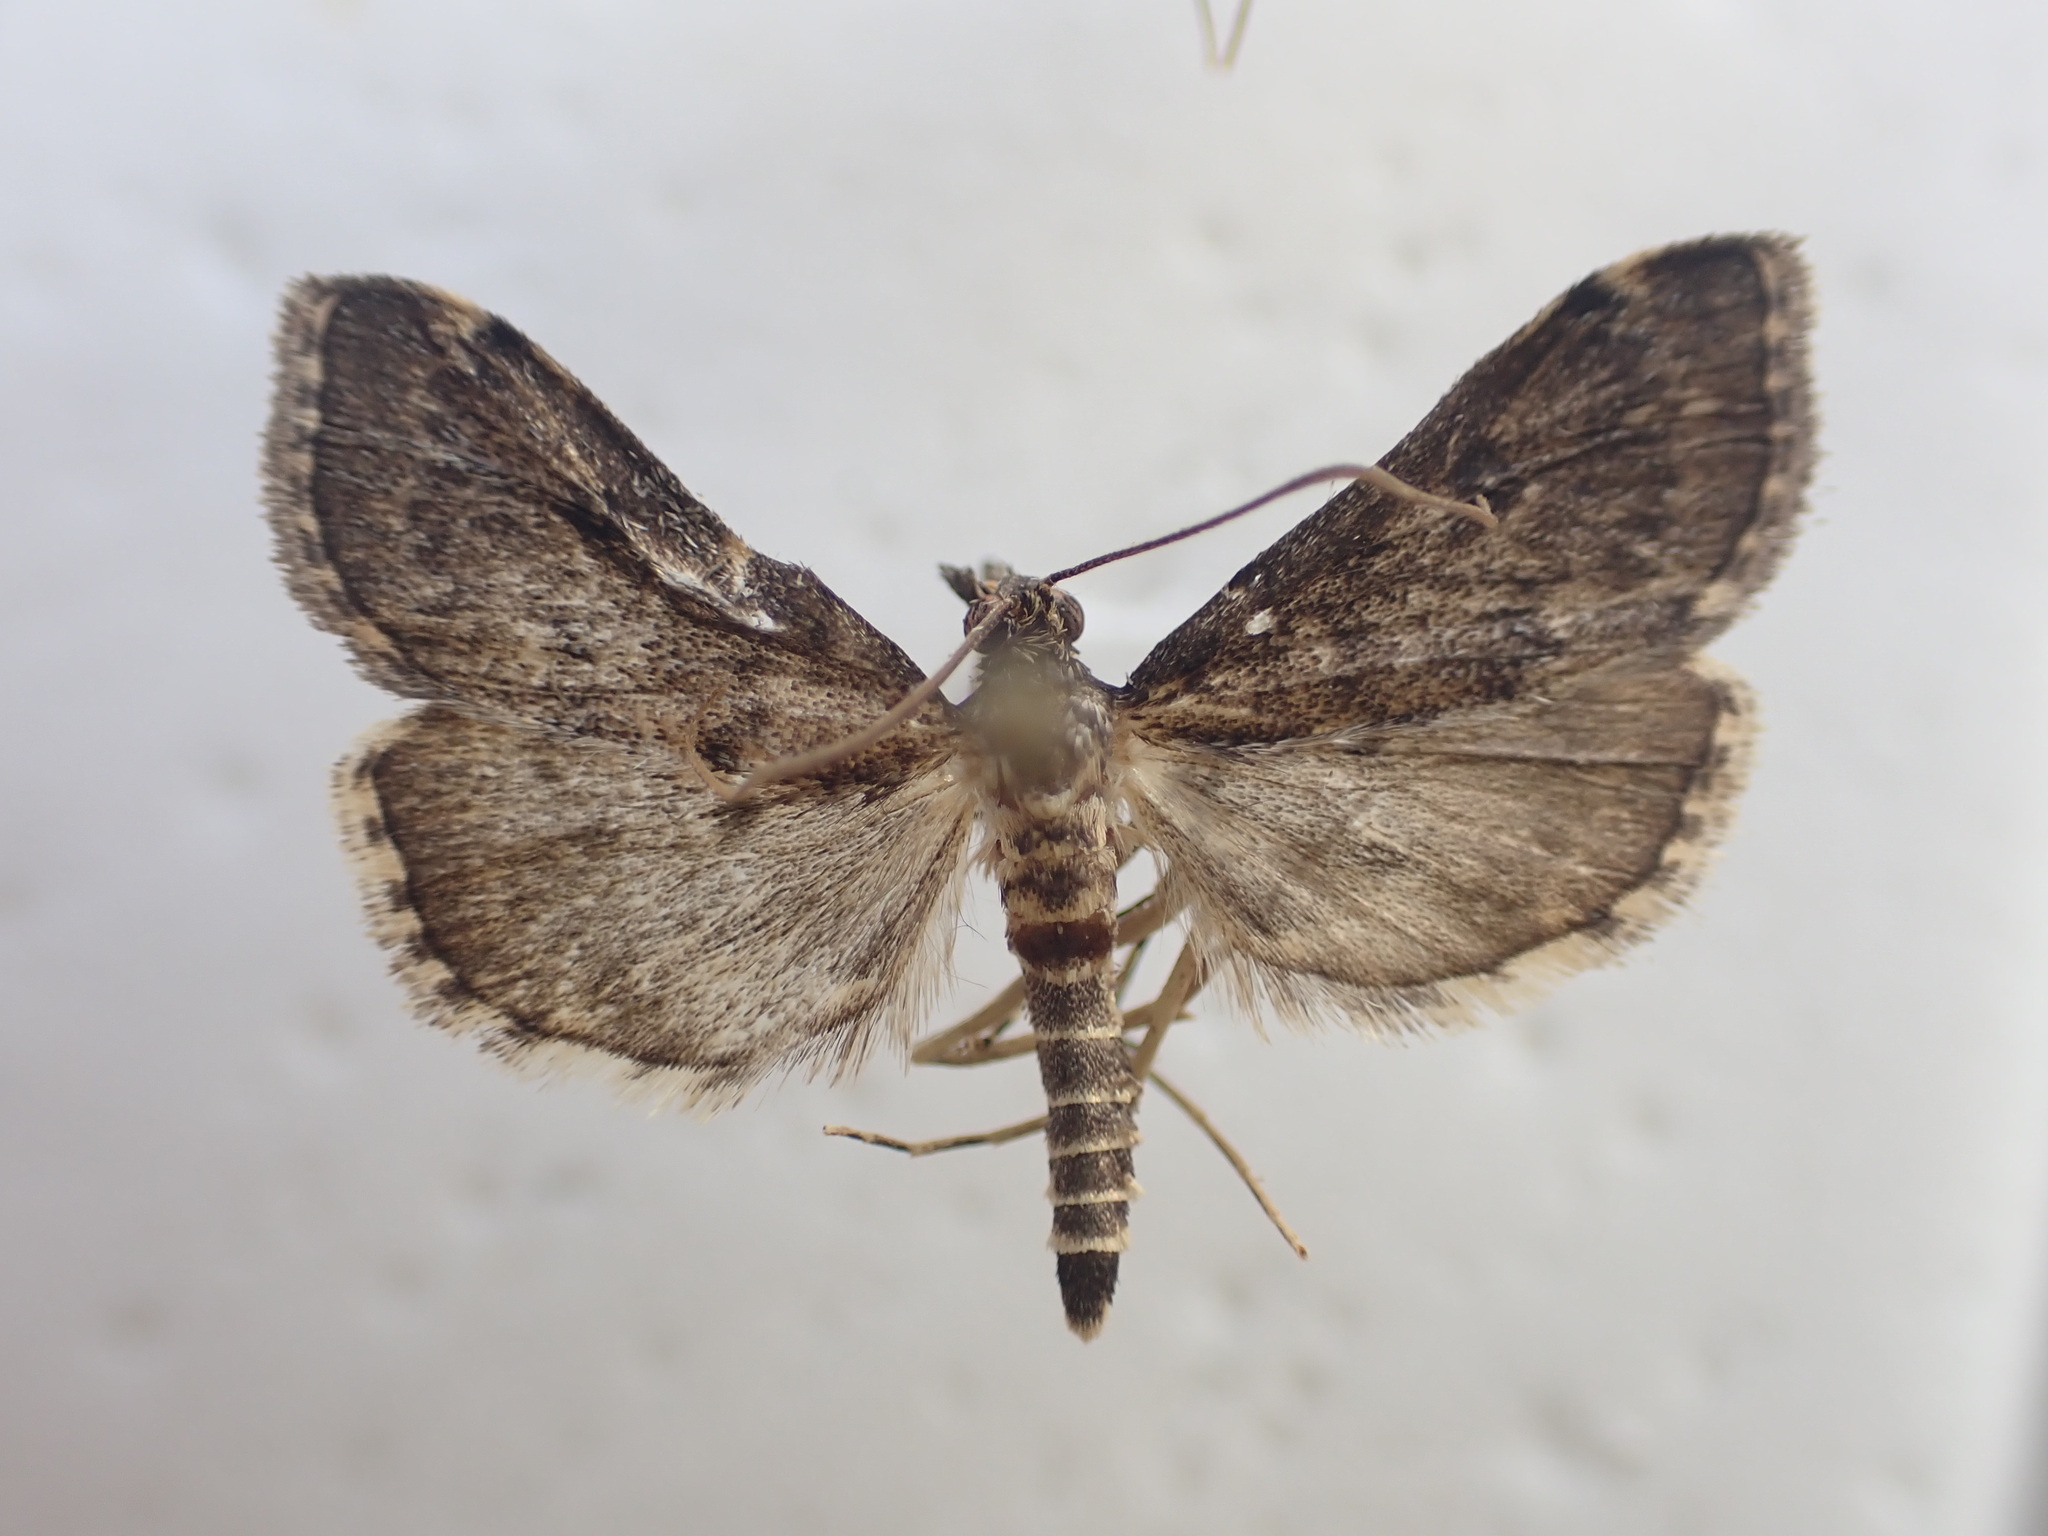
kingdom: Animalia
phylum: Arthropoda
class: Insecta
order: Lepidoptera
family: Crambidae
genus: Loxostege
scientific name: Loxostege Proternia philocapna
